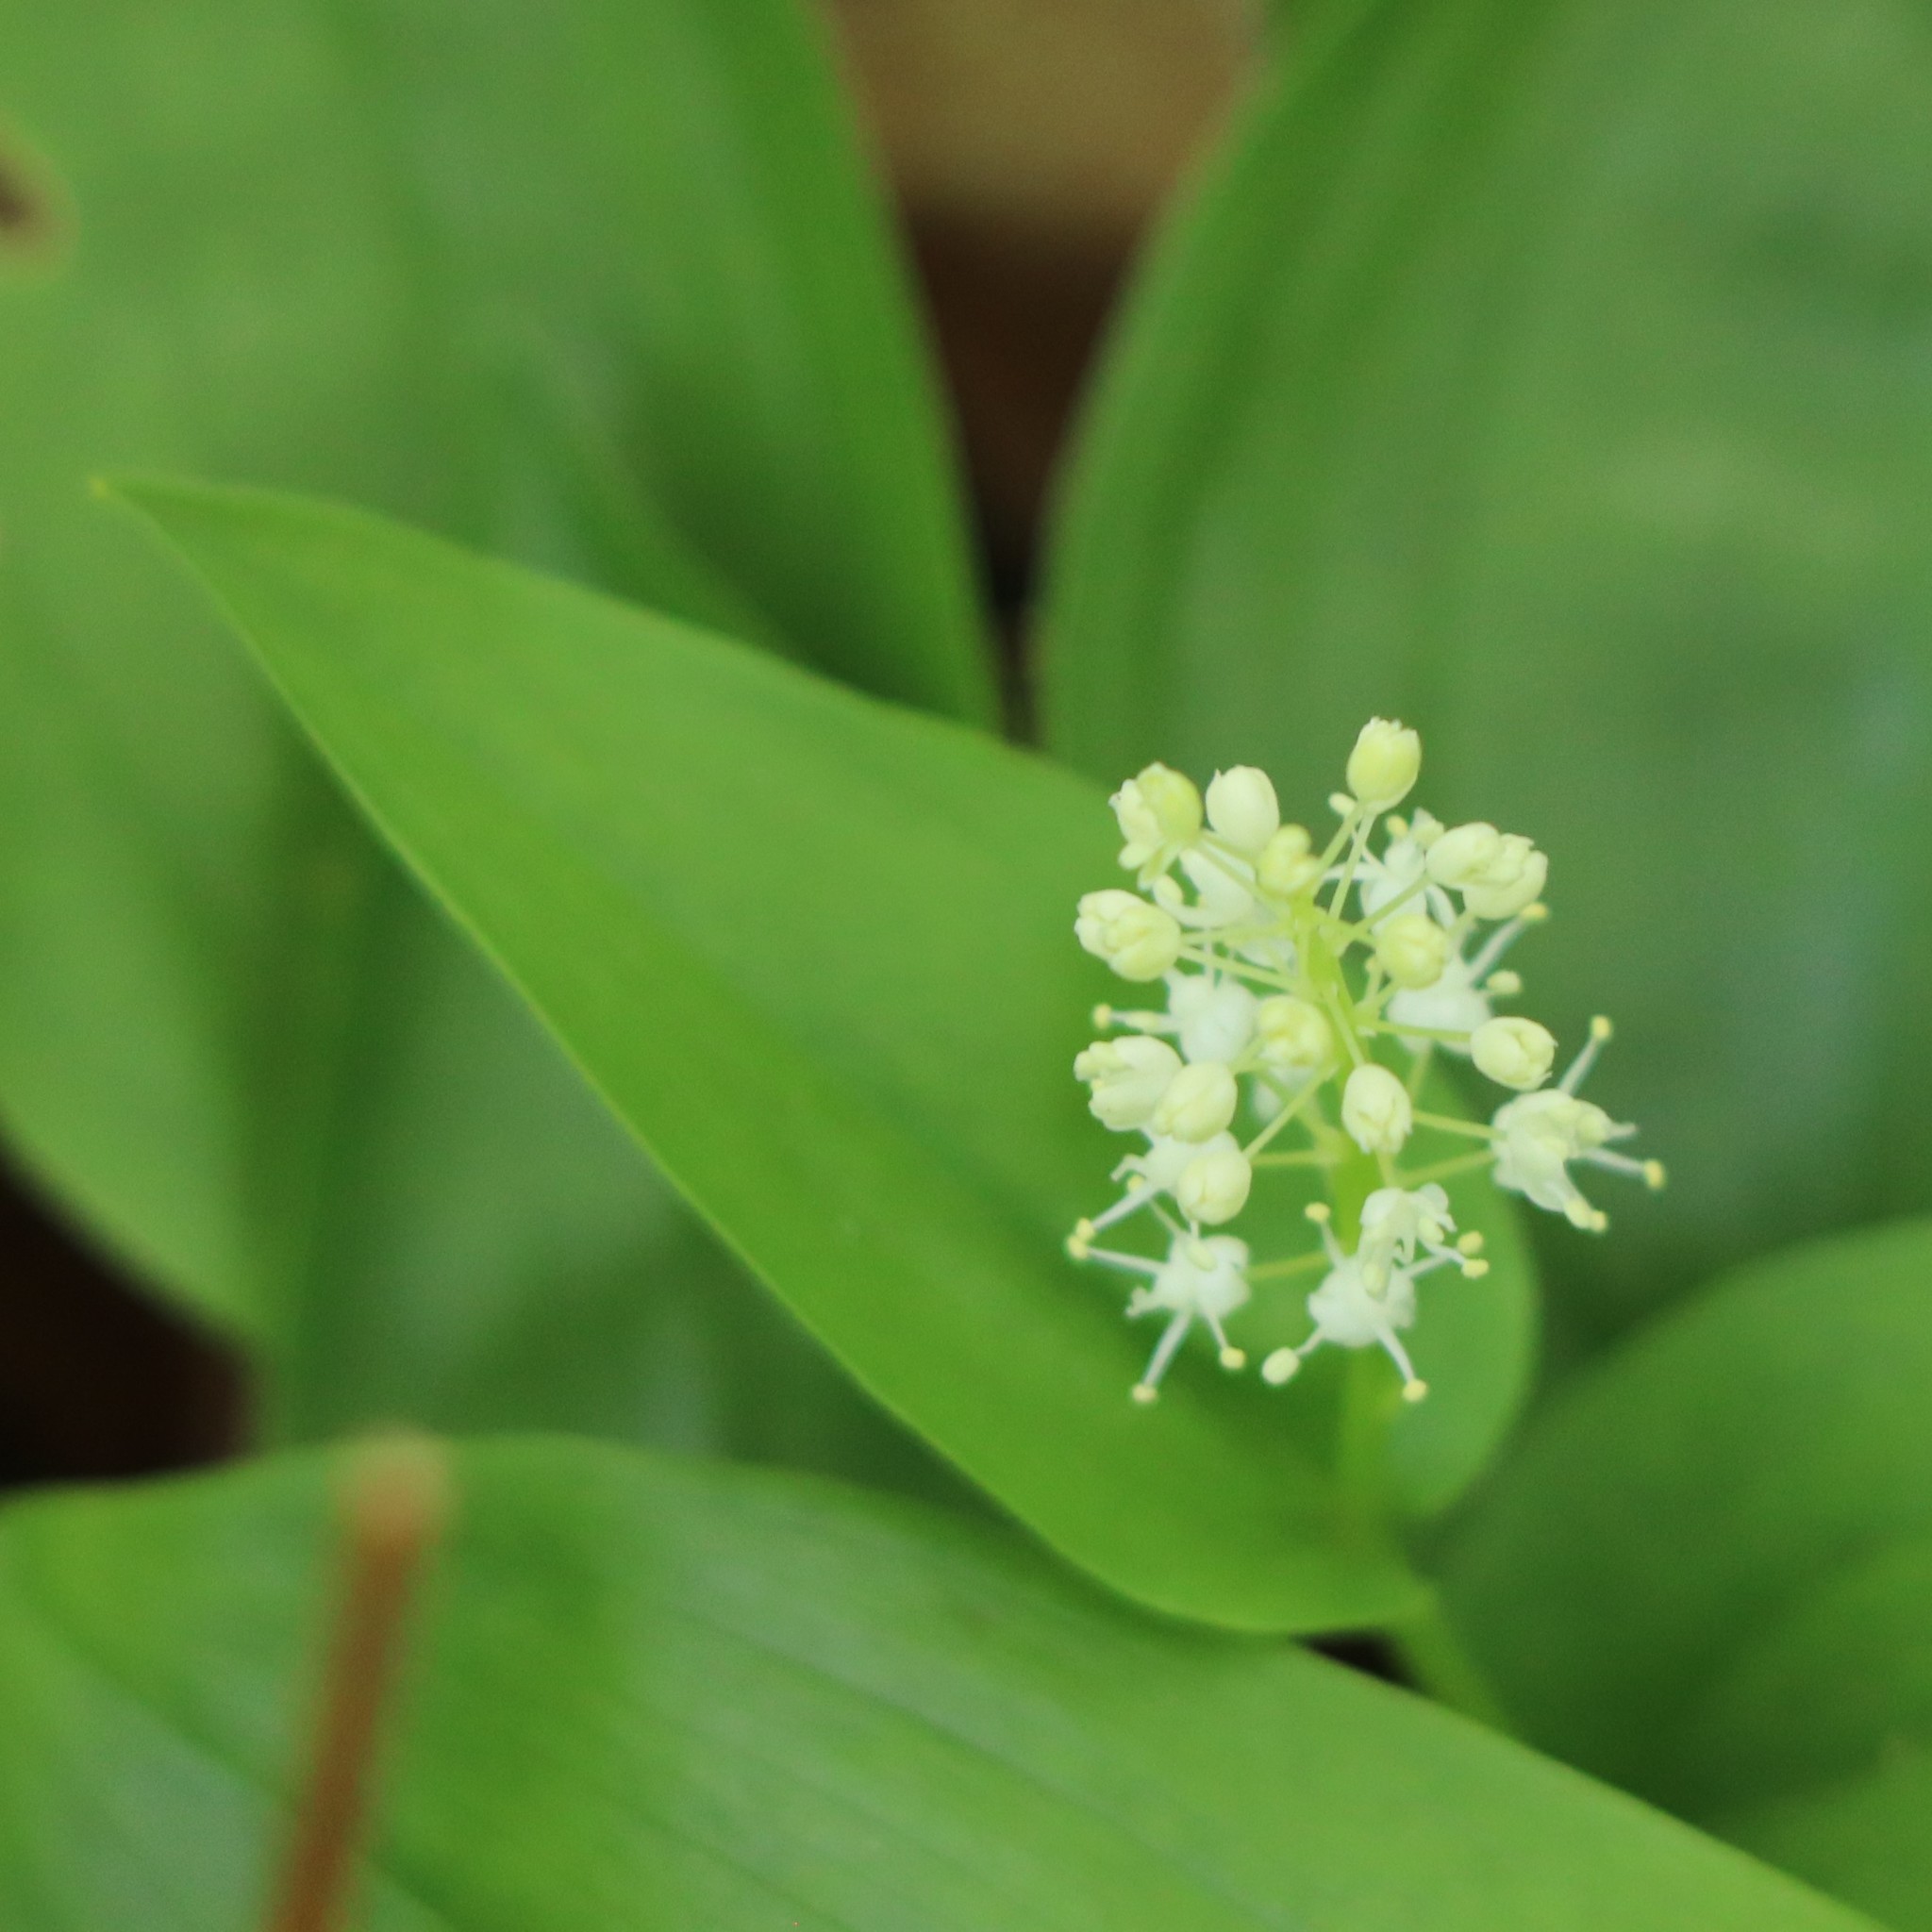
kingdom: Plantae
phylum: Tracheophyta
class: Liliopsida
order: Asparagales
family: Asparagaceae
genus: Maianthemum
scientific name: Maianthemum canadense
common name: False lily-of-the-valley
